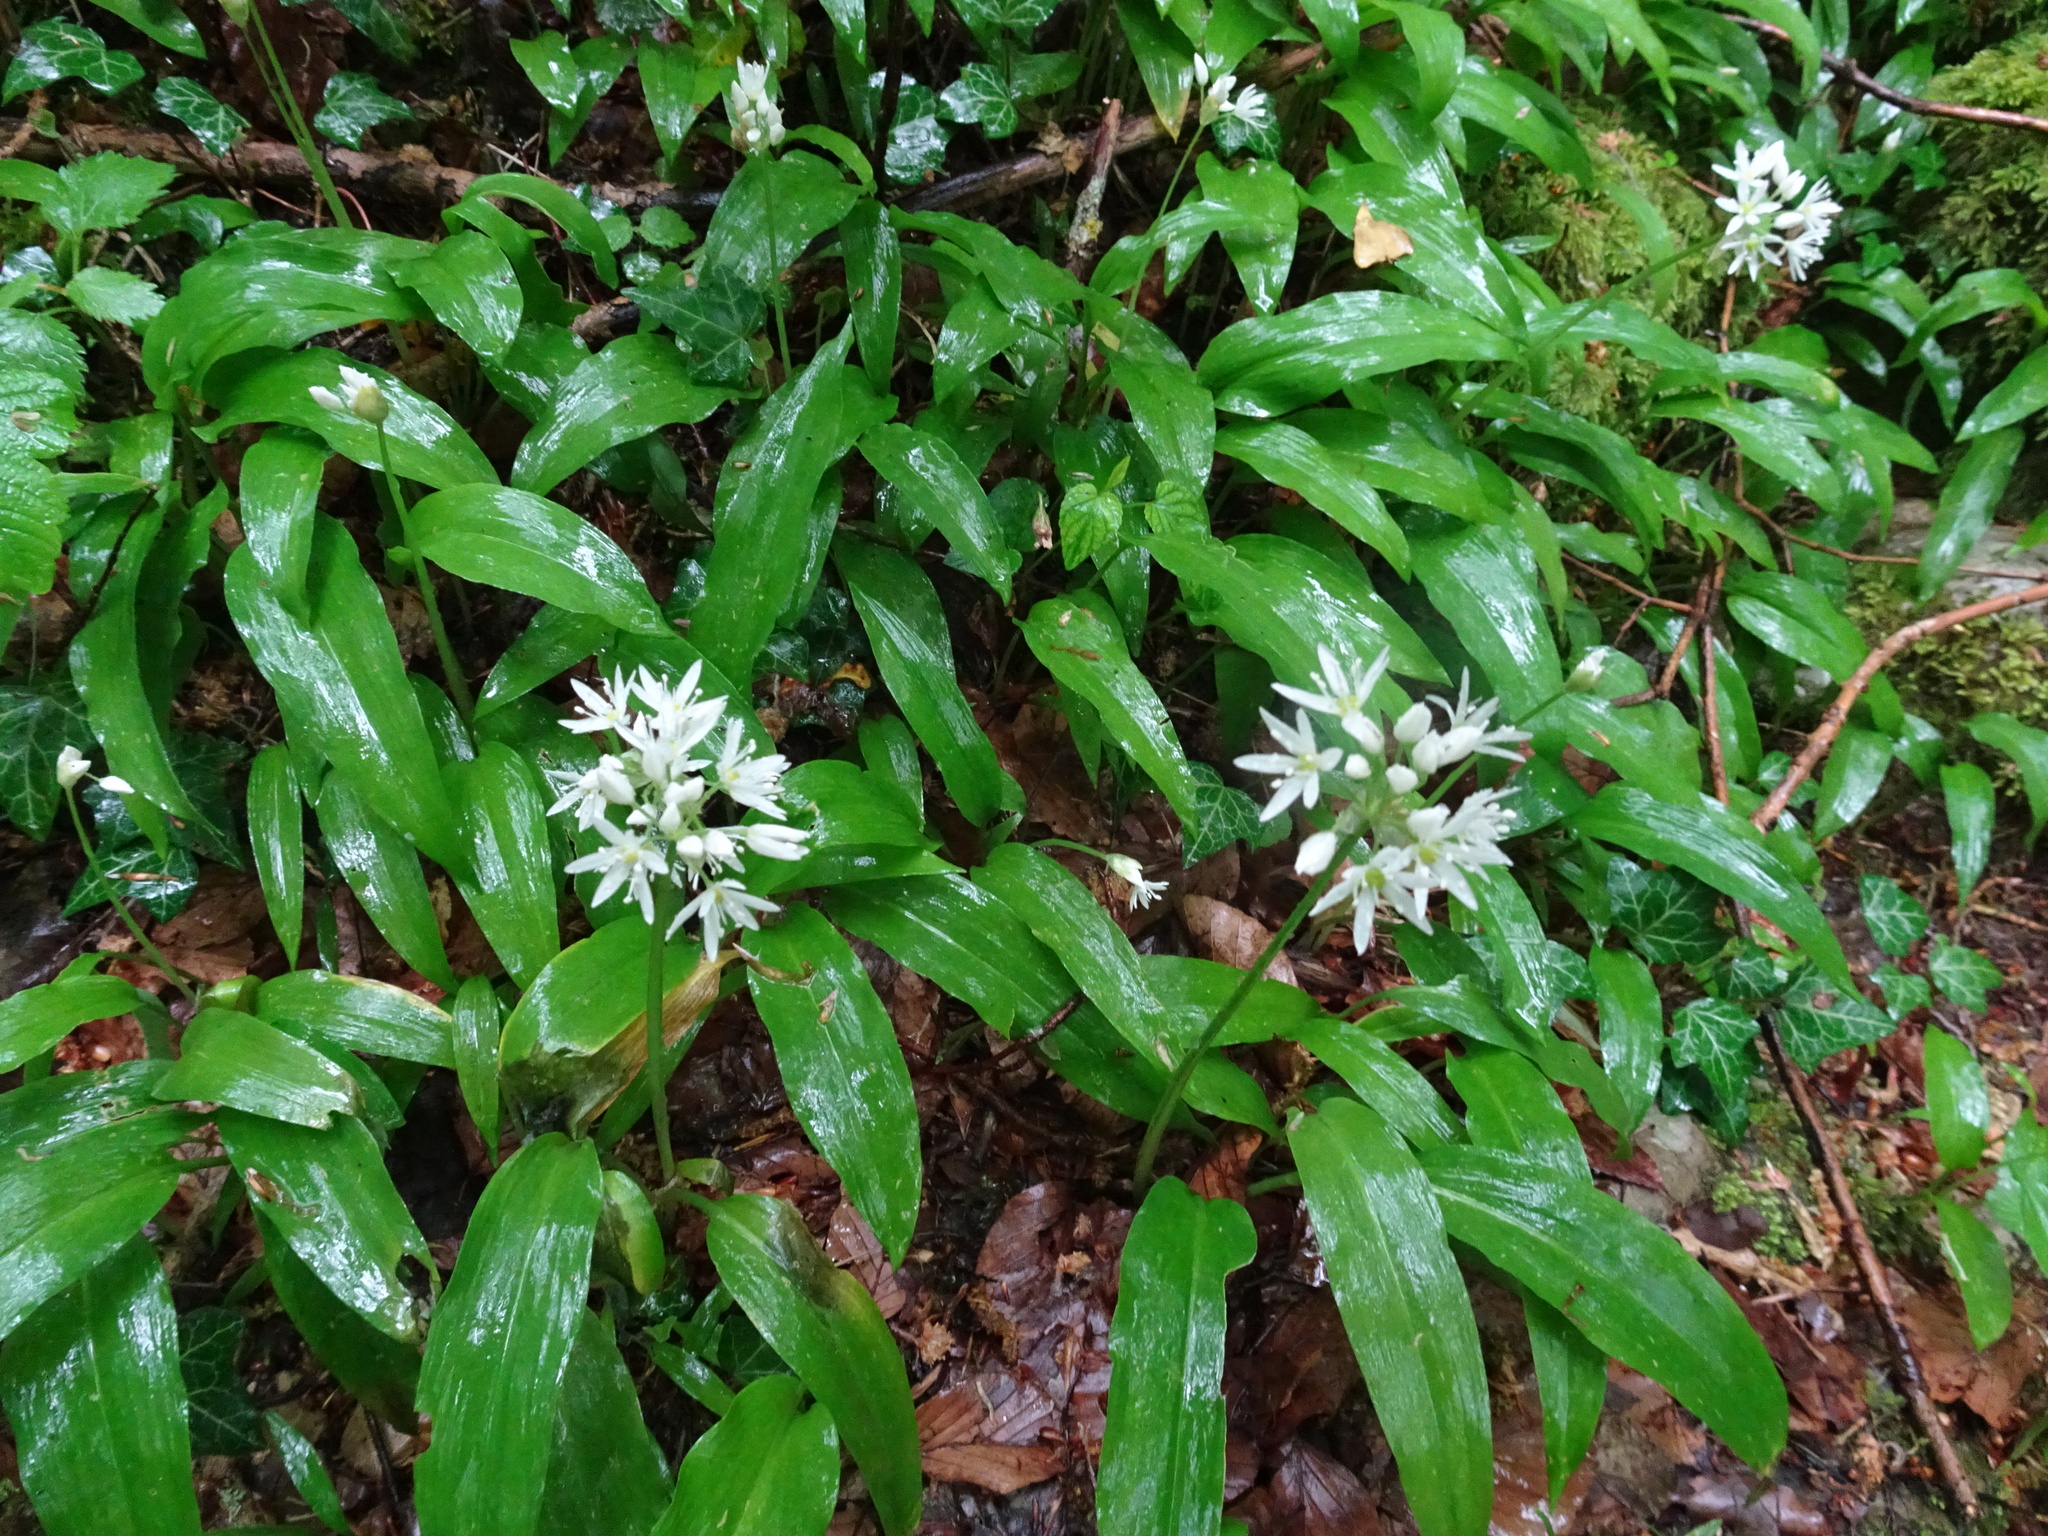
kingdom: Plantae
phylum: Tracheophyta
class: Liliopsida
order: Asparagales
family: Amaryllidaceae
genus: Allium
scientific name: Allium ursinum
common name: Ramsons
